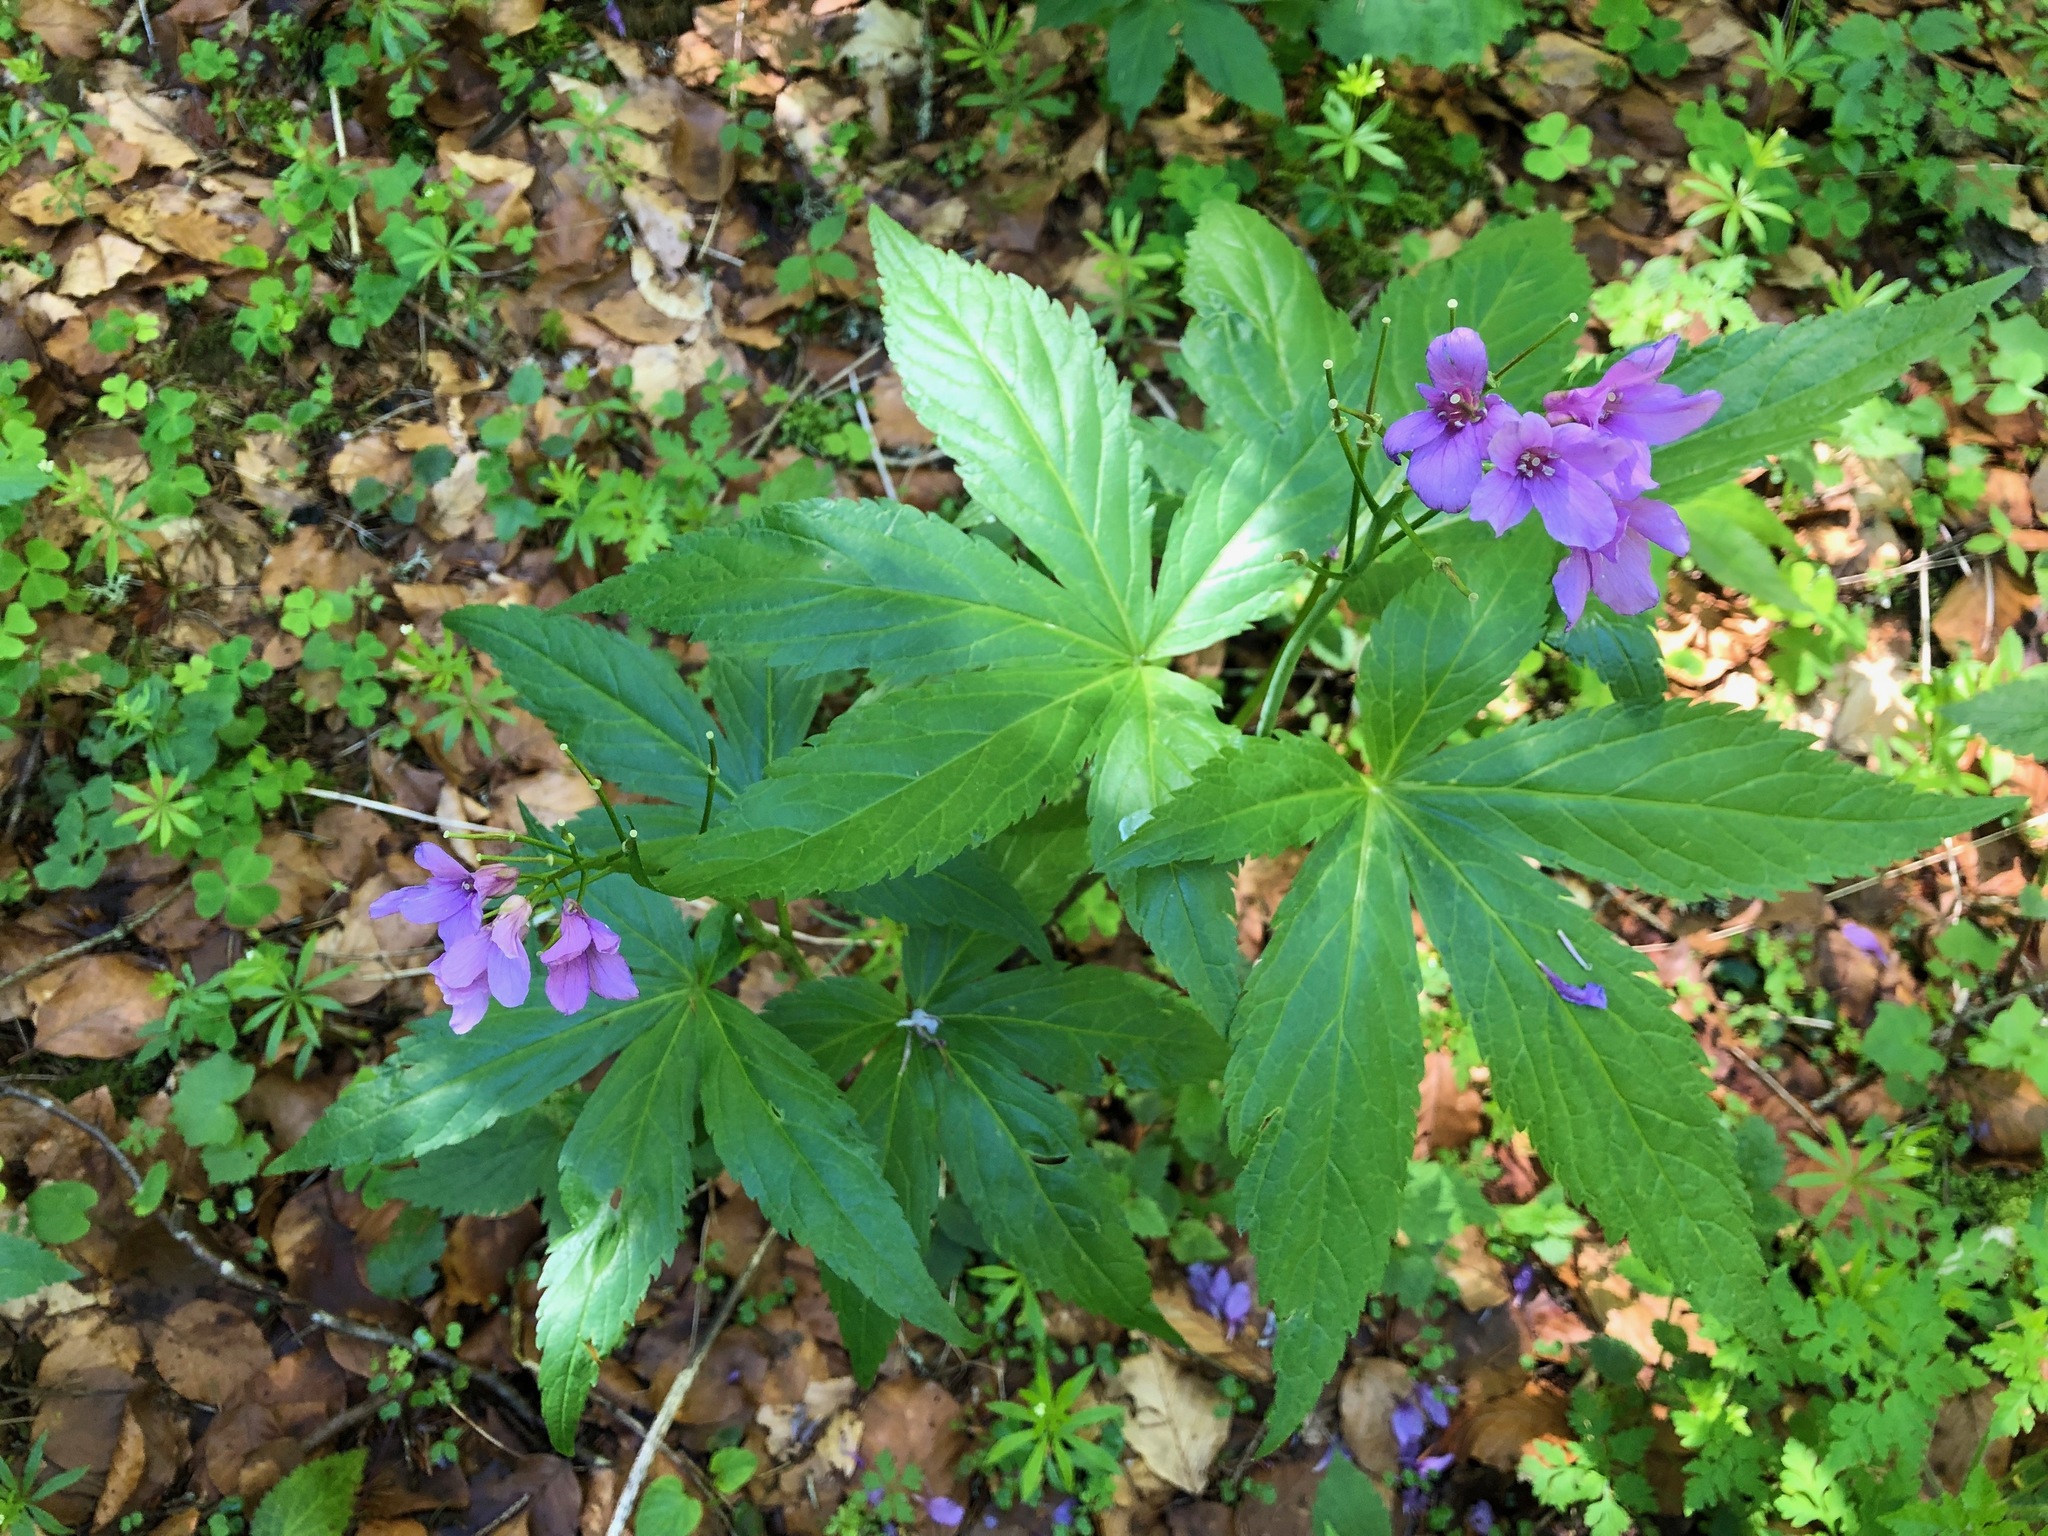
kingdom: Plantae
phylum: Tracheophyta
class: Magnoliopsida
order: Brassicales
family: Brassicaceae
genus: Cardamine
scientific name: Cardamine pentaphyllos
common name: Five-leaflet bitter-cress
